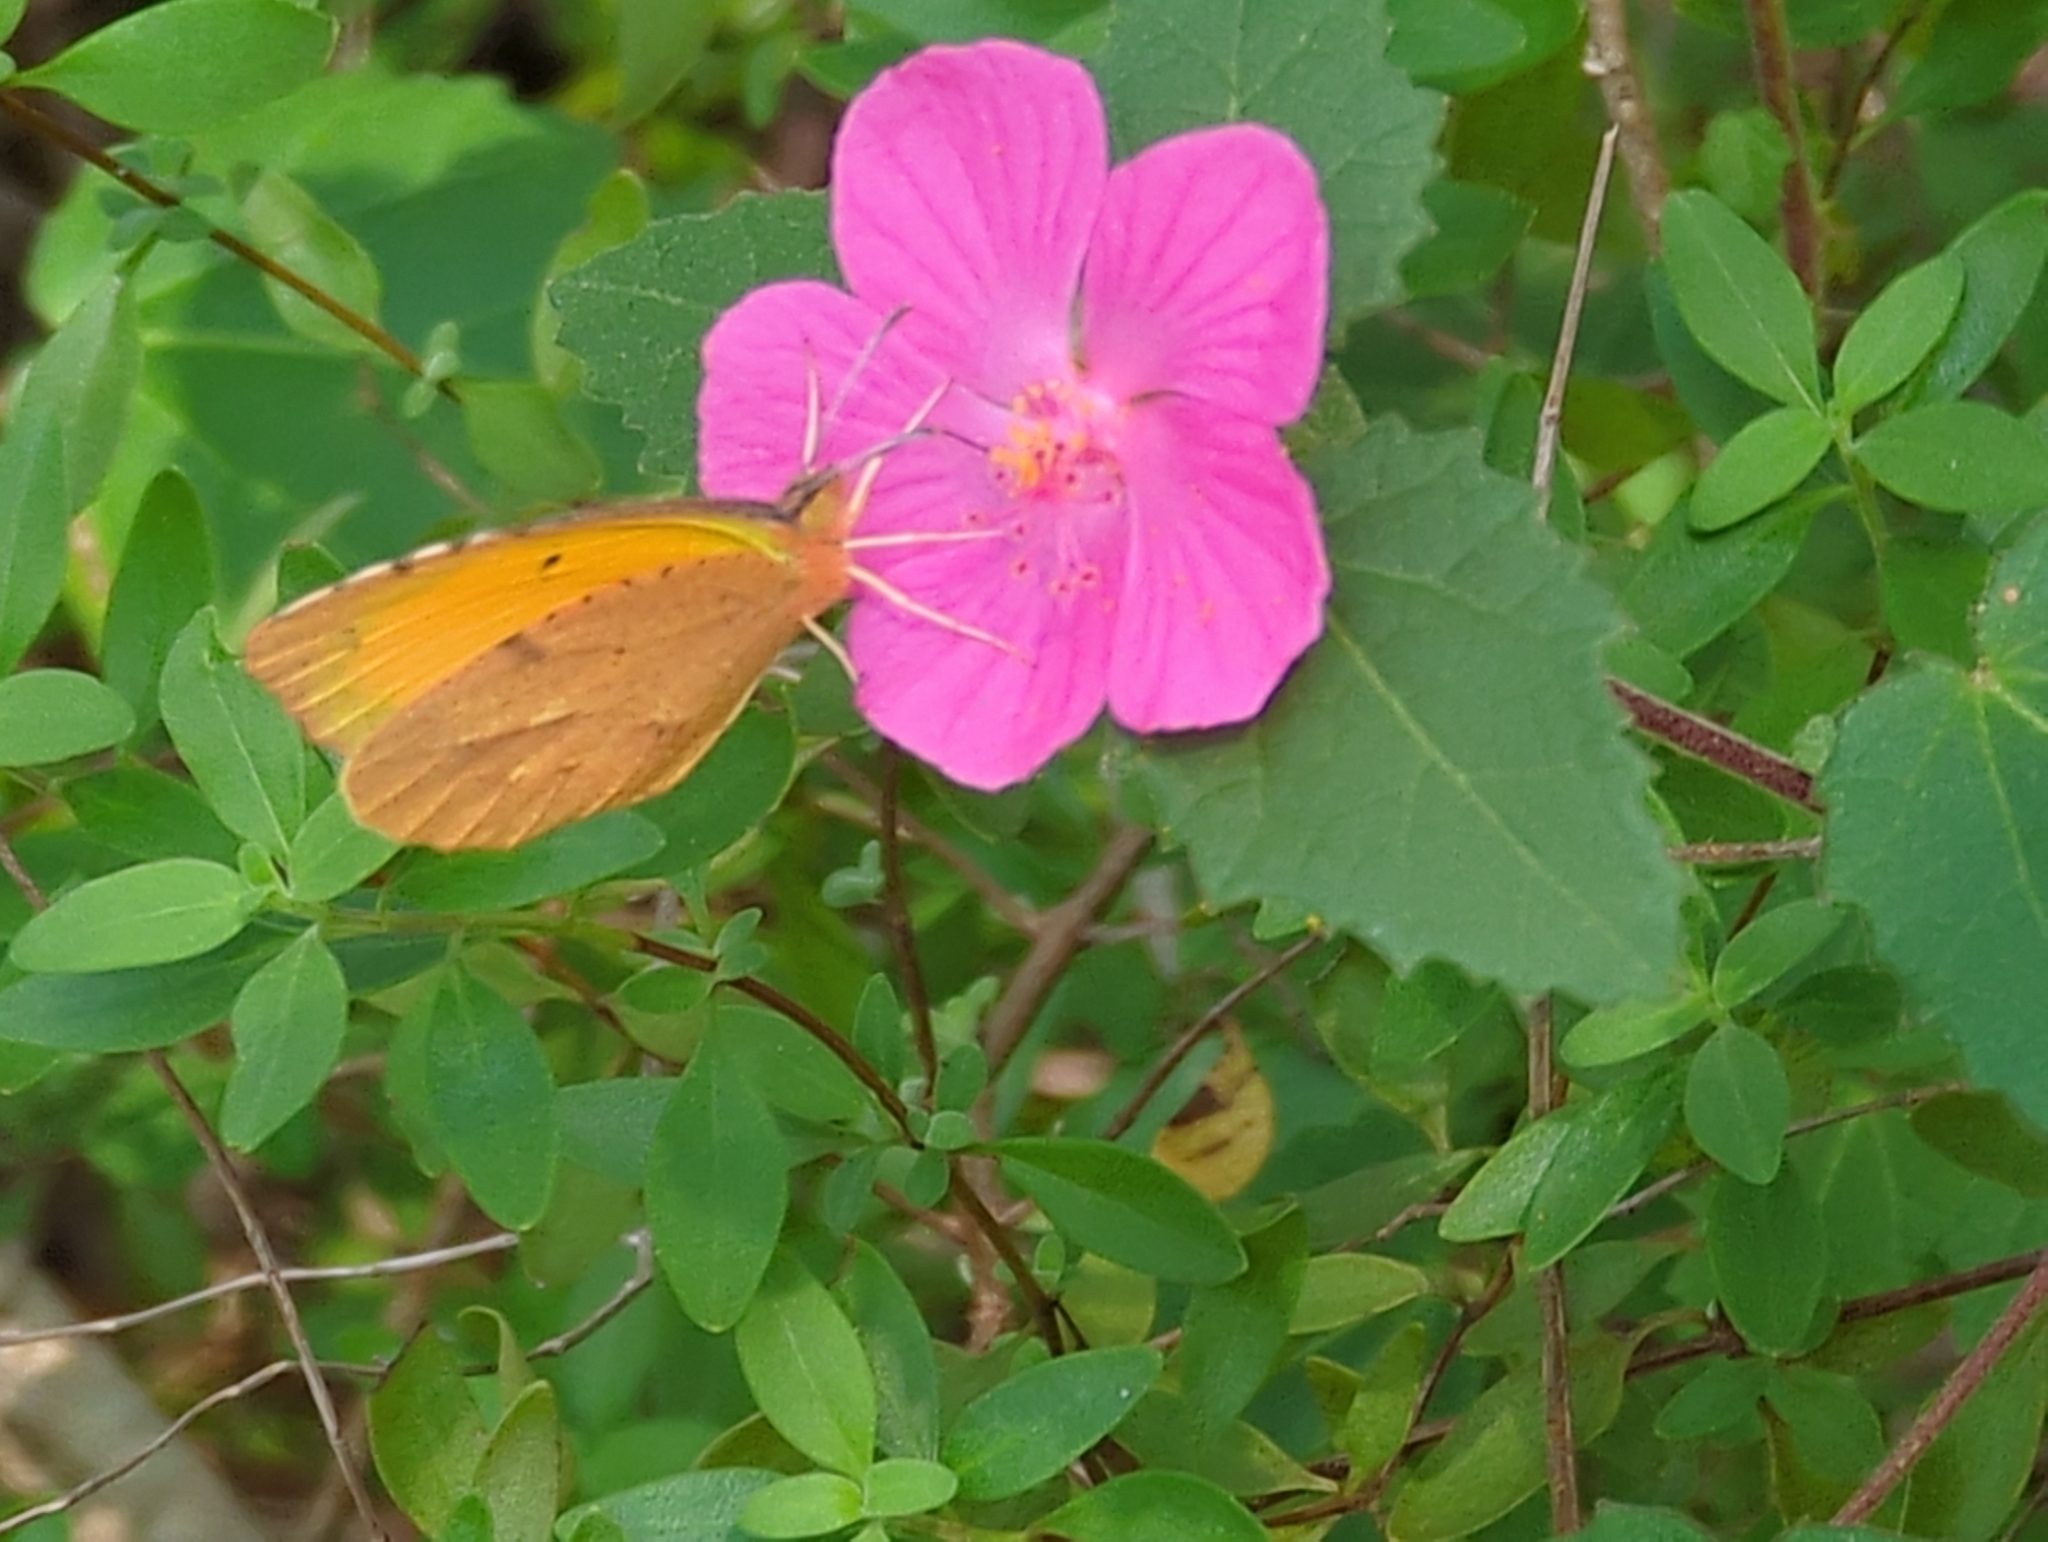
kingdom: Animalia
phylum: Arthropoda
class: Insecta
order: Lepidoptera
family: Pieridae
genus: Abaeis
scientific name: Abaeis nicippe
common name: Sleepy orange
